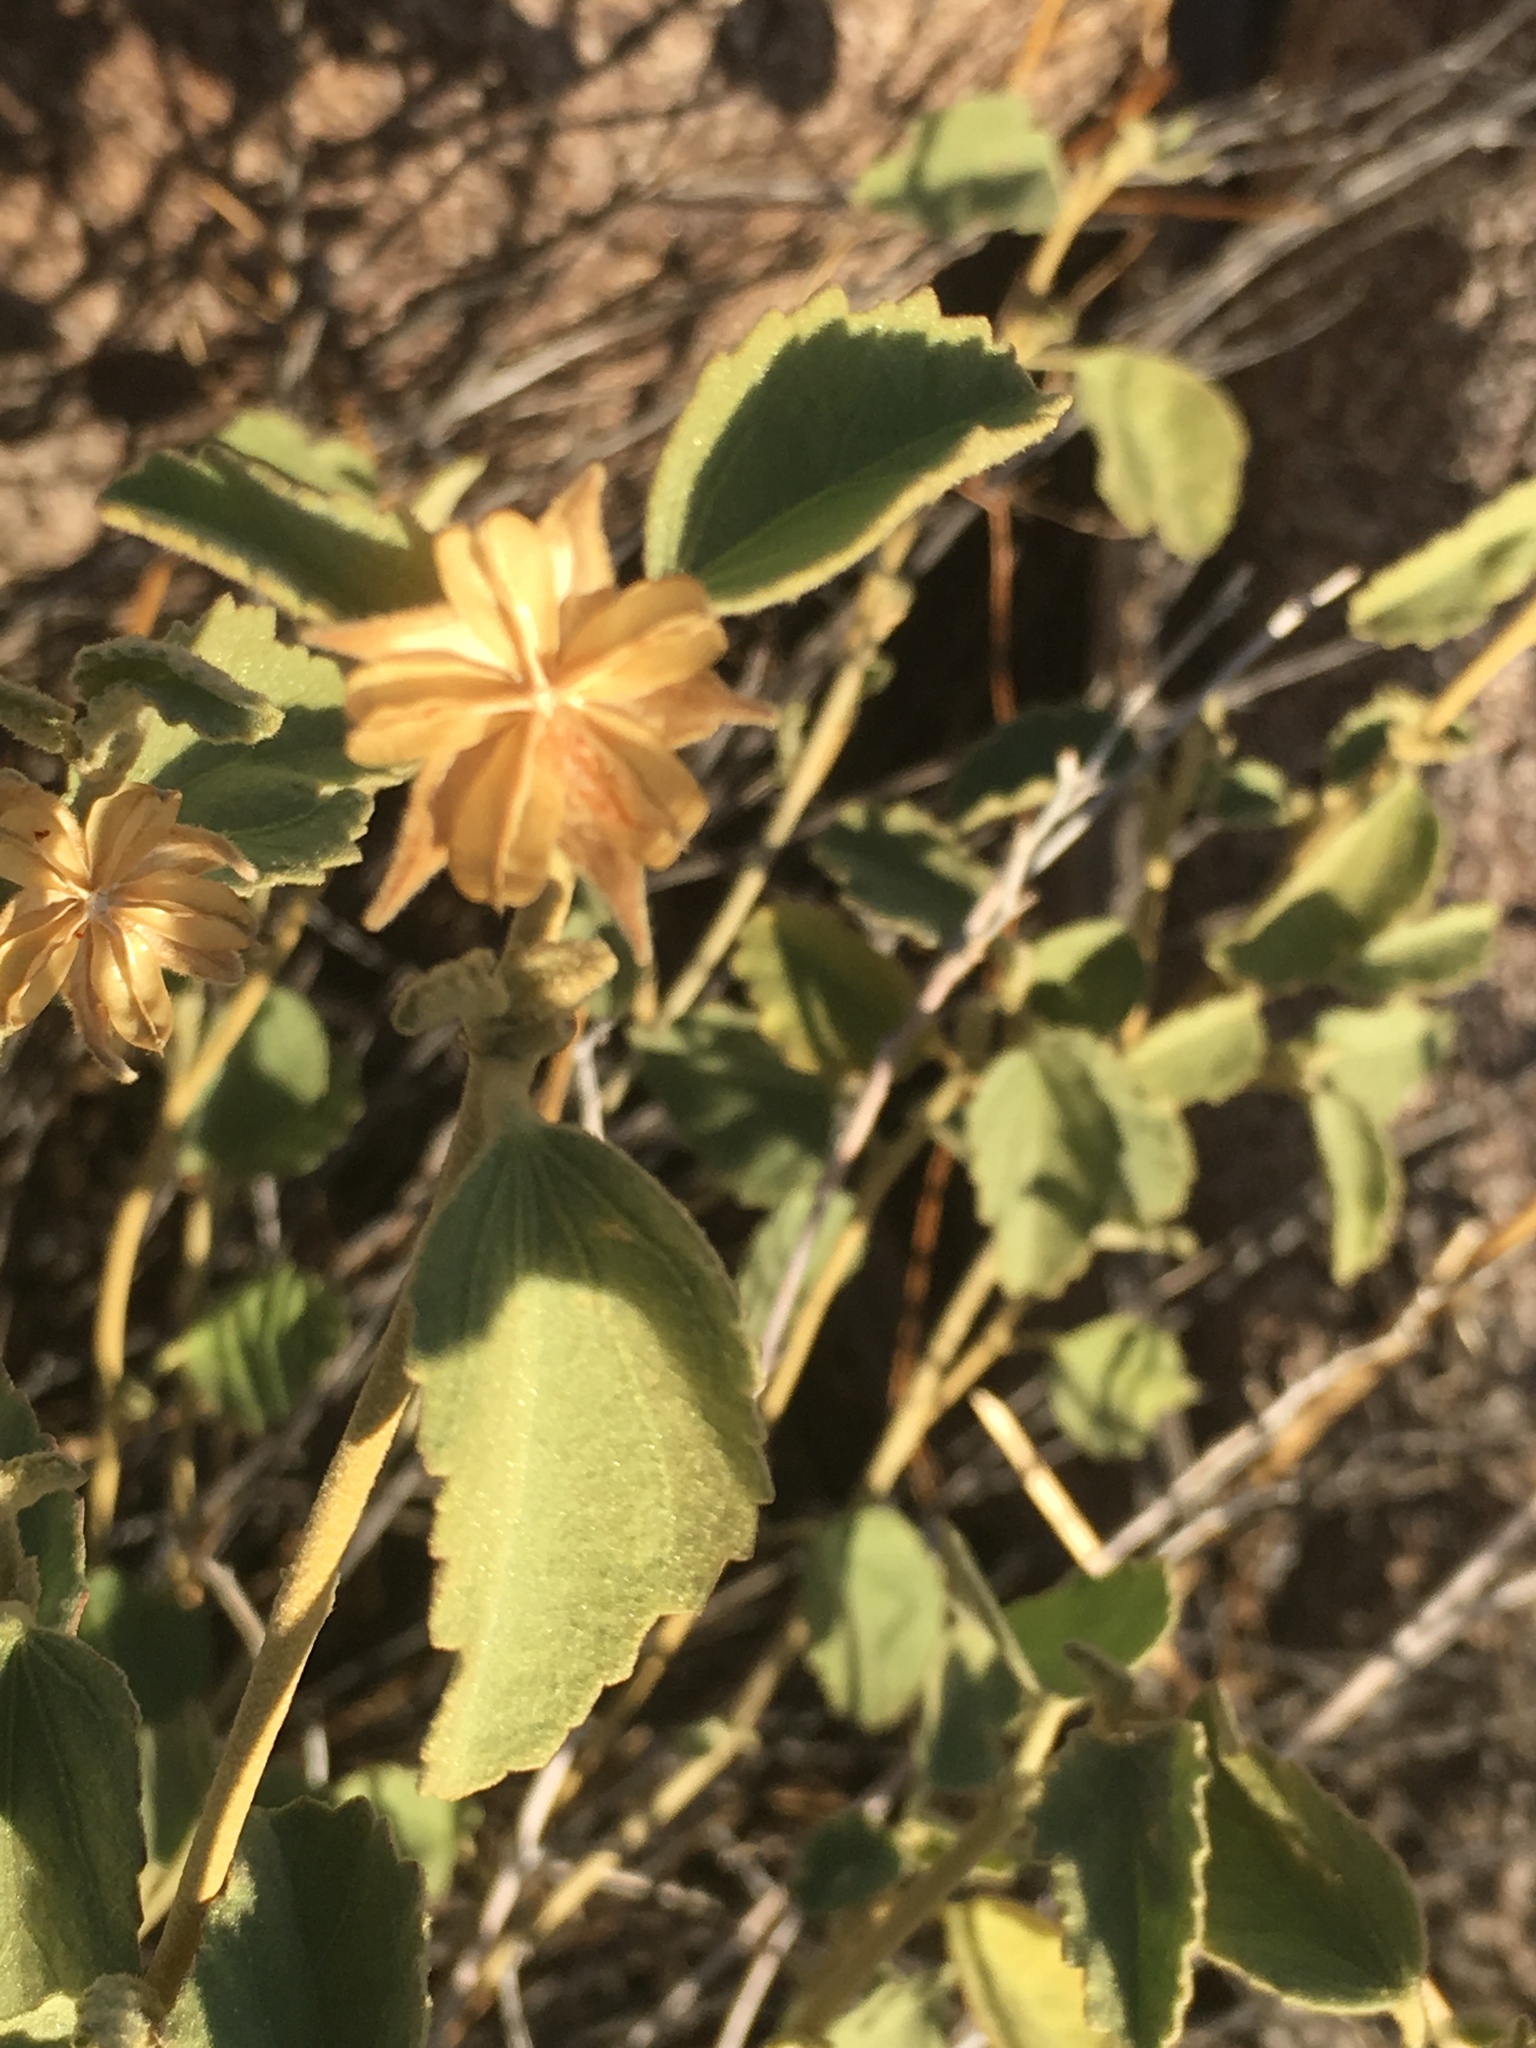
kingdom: Plantae
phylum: Tracheophyta
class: Magnoliopsida
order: Malvales
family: Malvaceae
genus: Hibiscus
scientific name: Hibiscus denudatus
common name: Paleface
